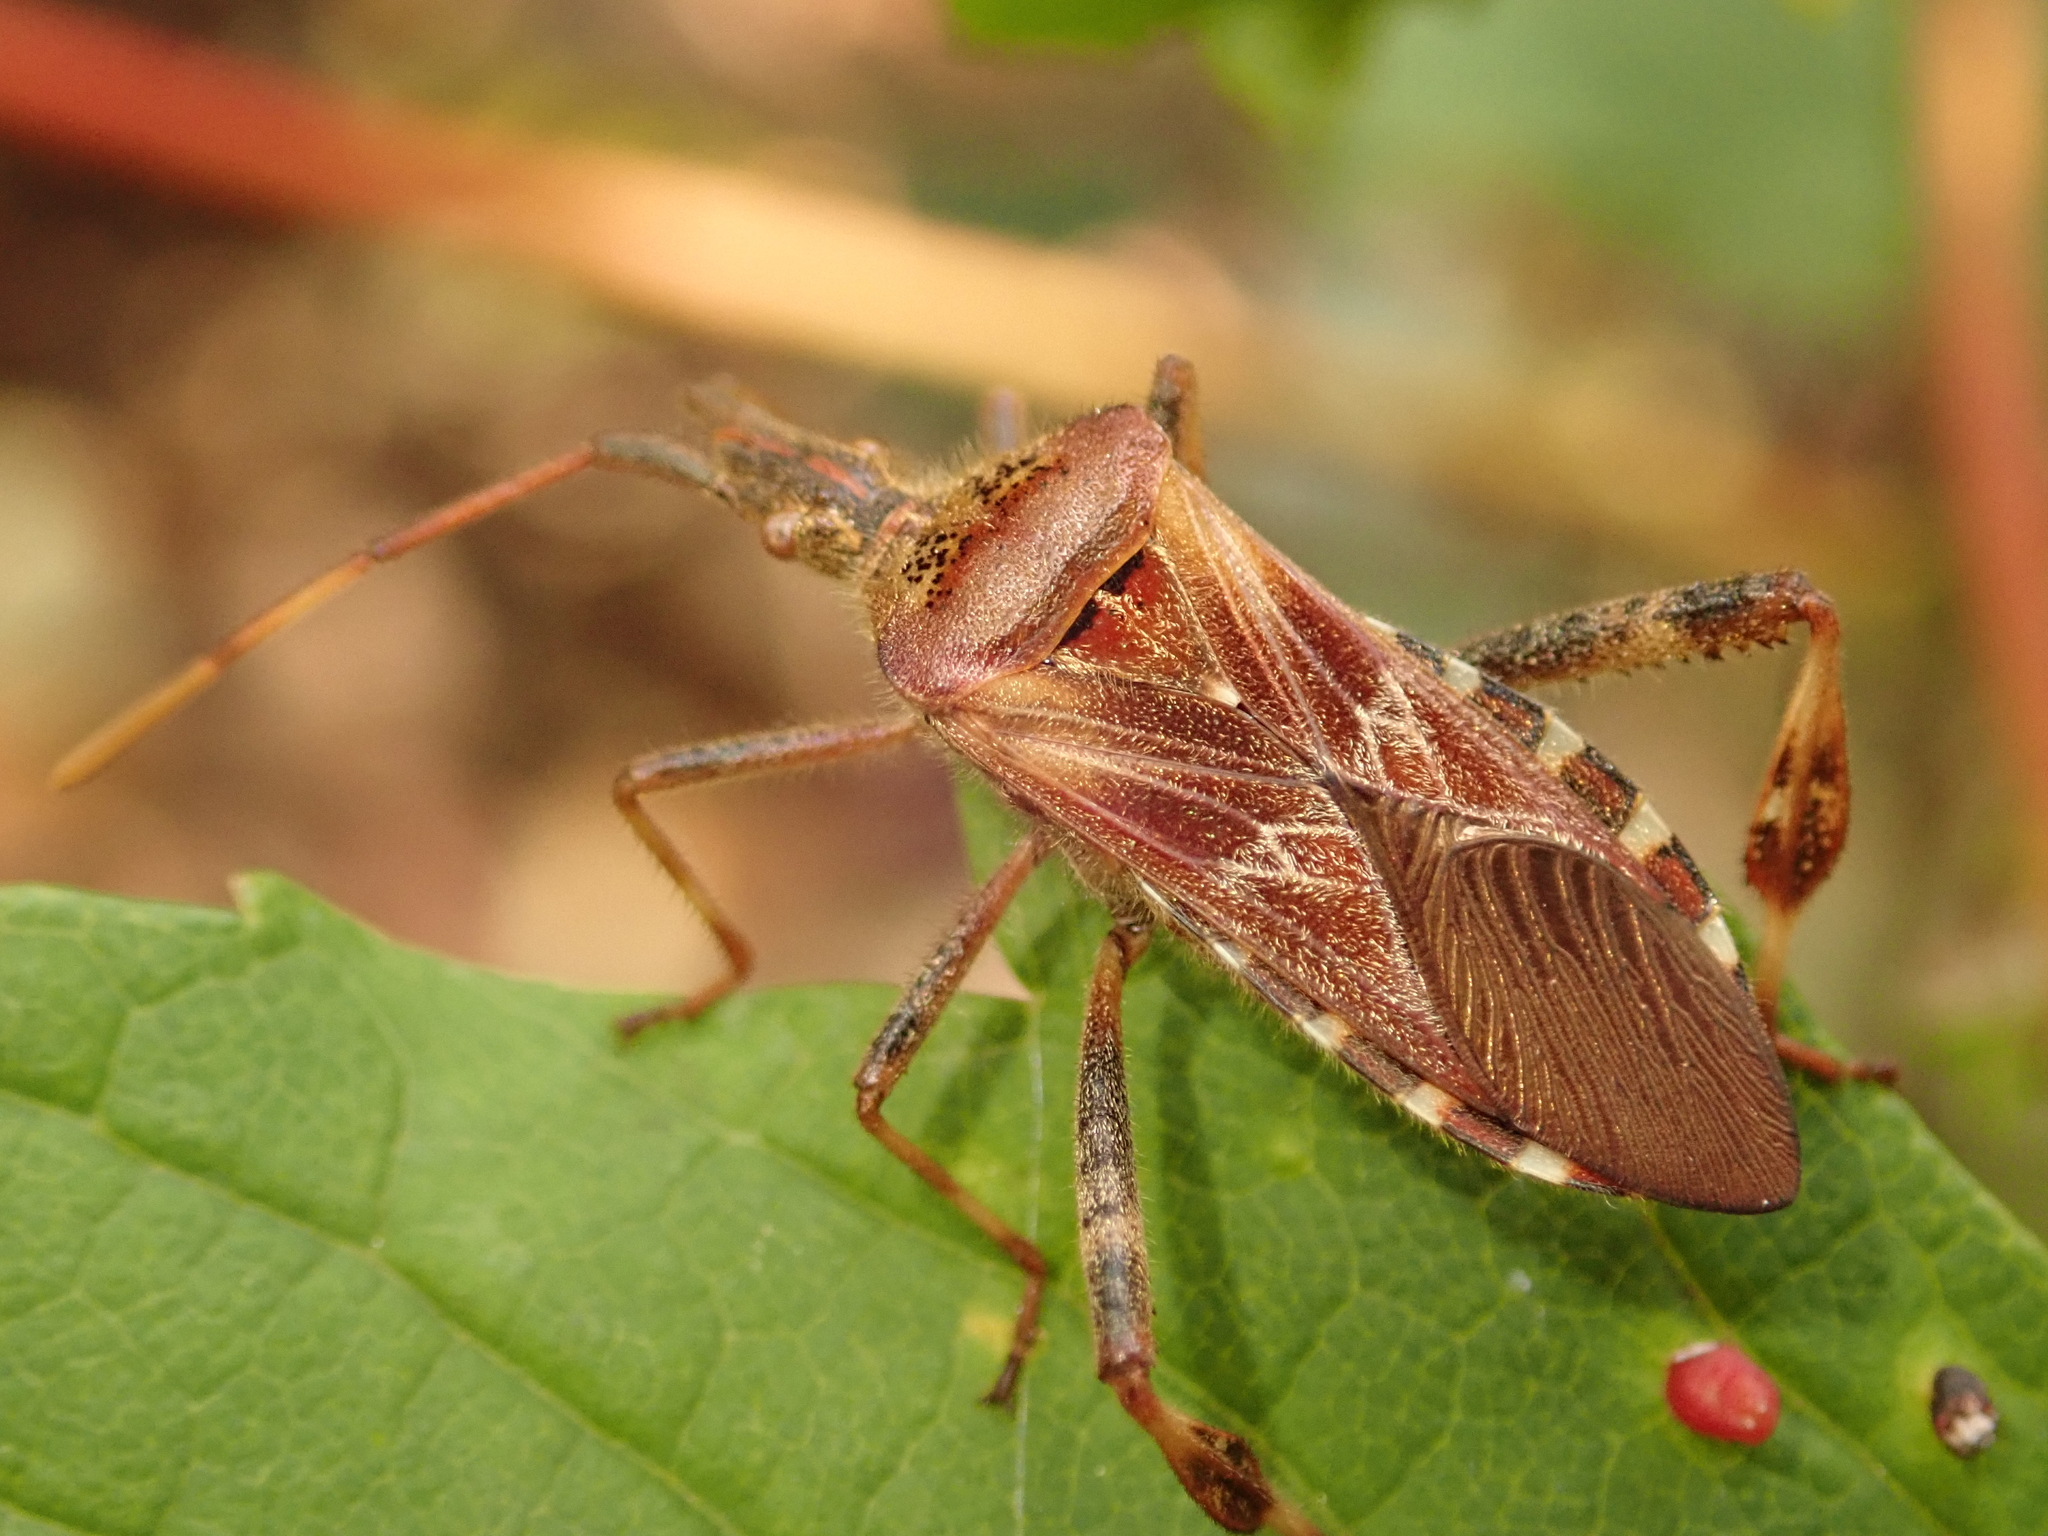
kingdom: Animalia
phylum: Arthropoda
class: Insecta
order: Hemiptera
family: Coreidae
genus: Leptoglossus
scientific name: Leptoglossus occidentalis
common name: Western conifer-seed bug
